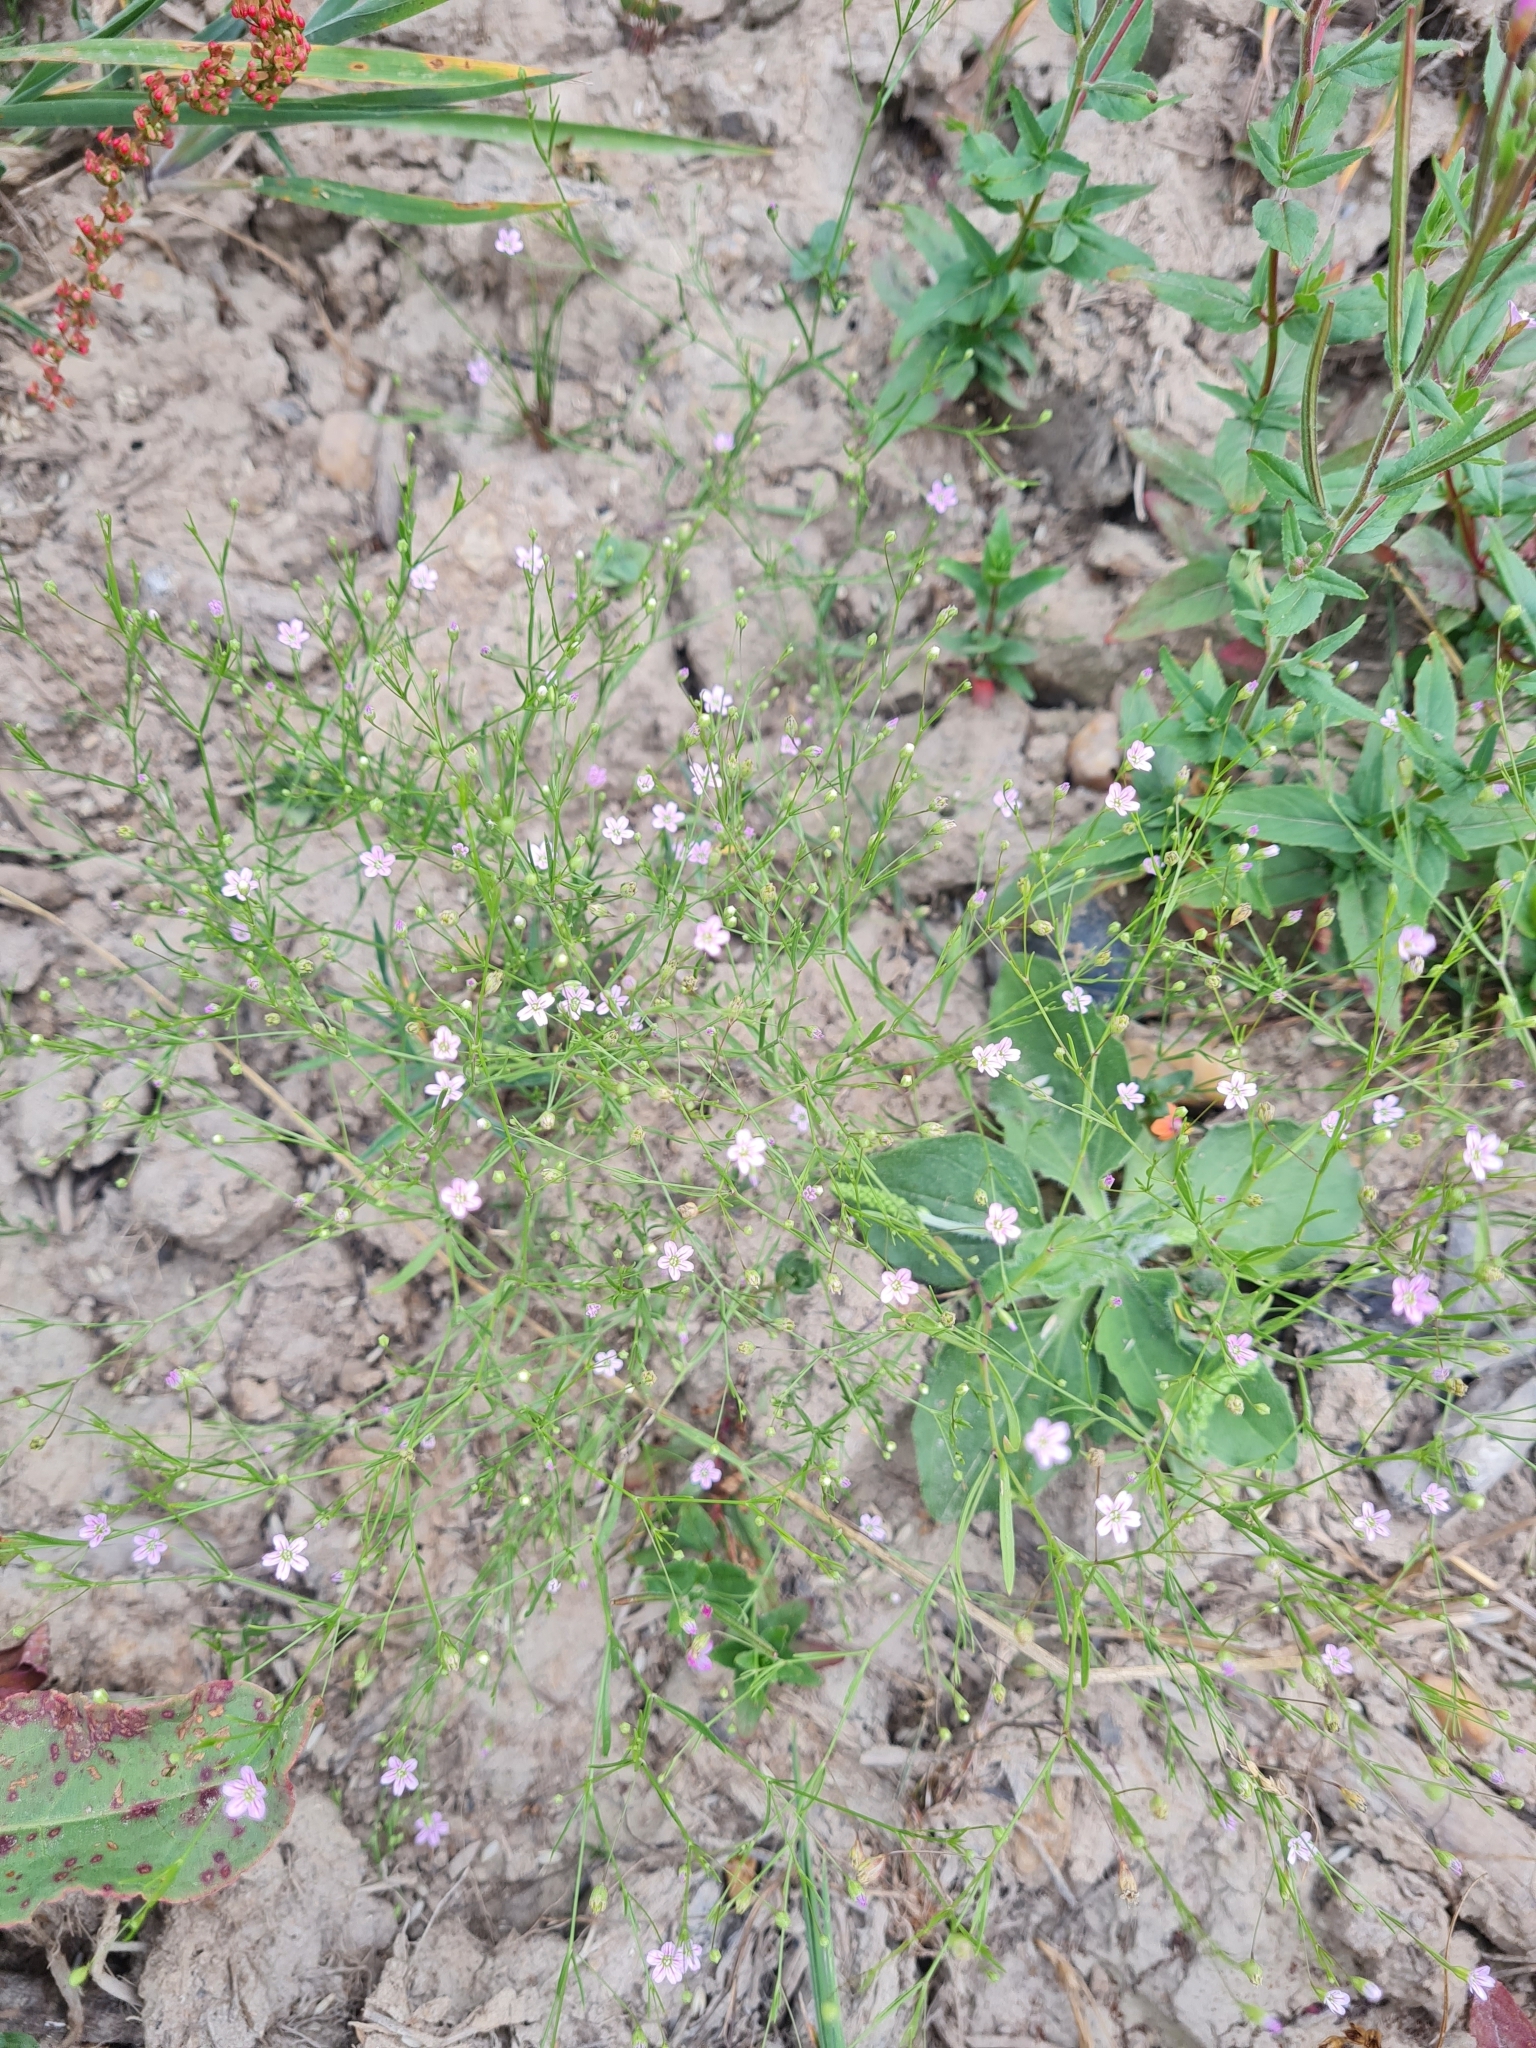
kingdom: Plantae
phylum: Tracheophyta
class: Magnoliopsida
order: Caryophyllales
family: Caryophyllaceae
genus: Psammophiliella
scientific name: Psammophiliella muralis
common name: Cushion baby's-breath
